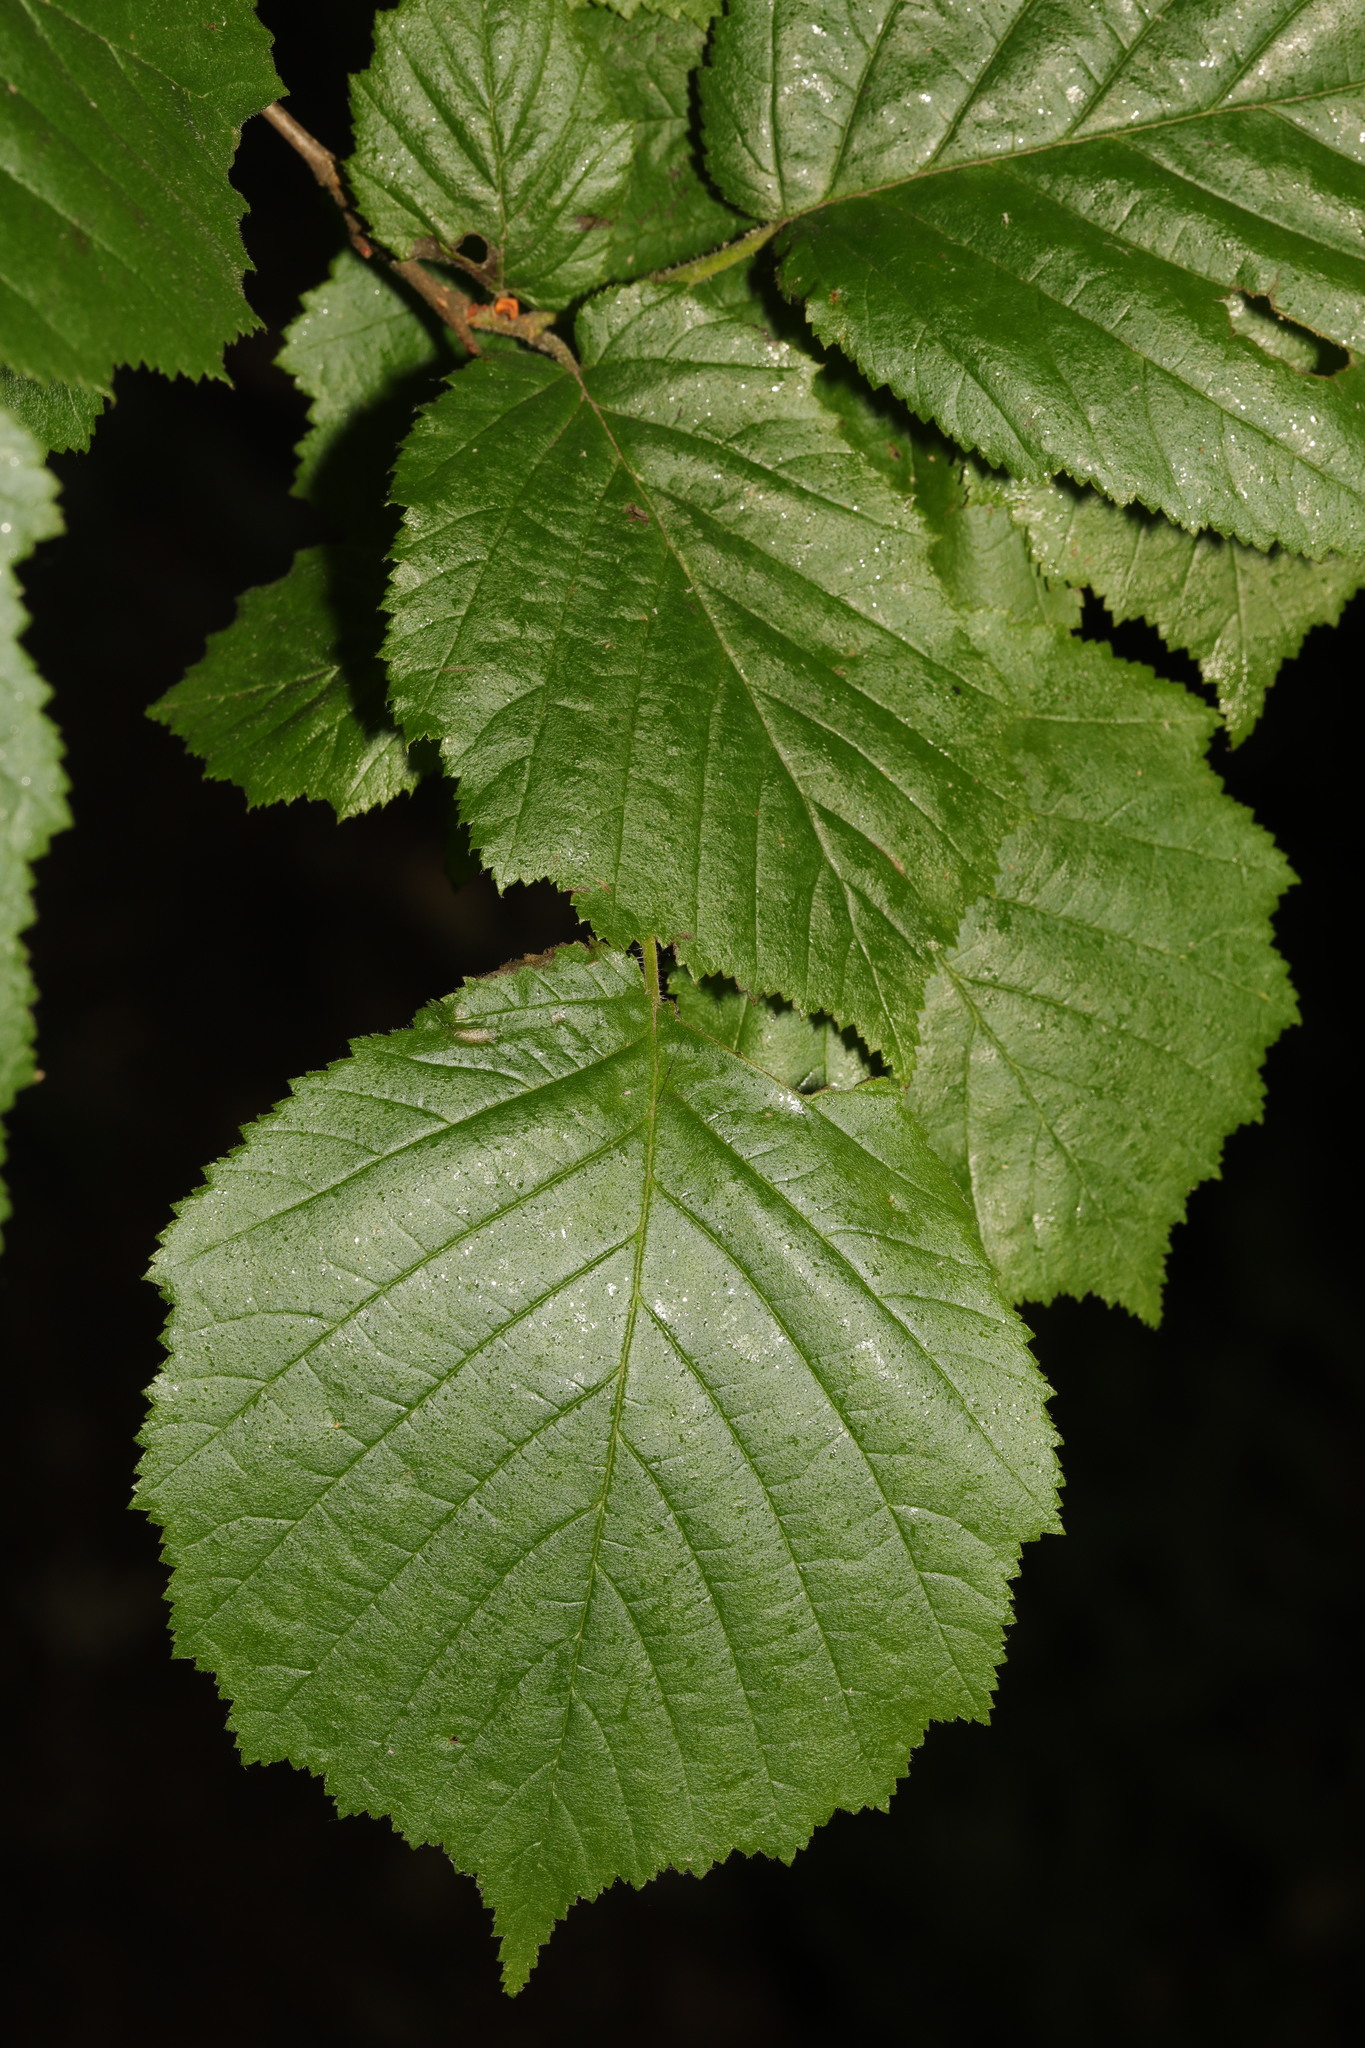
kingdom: Plantae
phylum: Tracheophyta
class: Magnoliopsida
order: Fagales
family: Betulaceae
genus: Corylus
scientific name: Corylus avellana
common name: European hazel
